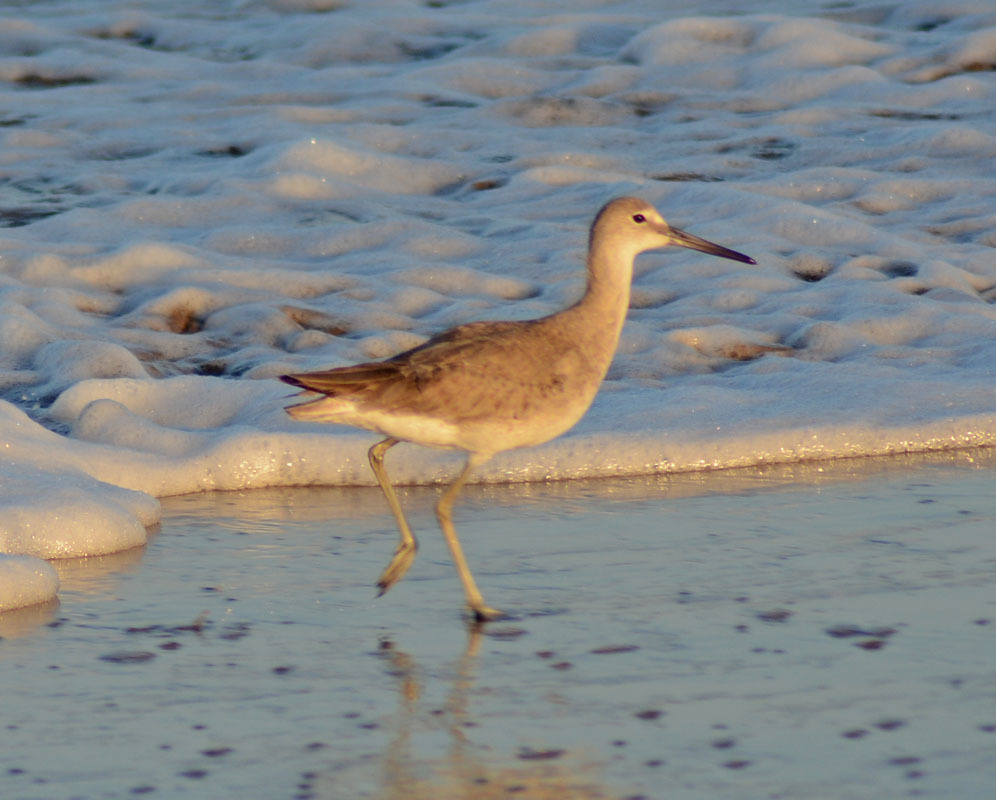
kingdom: Animalia
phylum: Chordata
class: Aves
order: Charadriiformes
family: Scolopacidae
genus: Tringa
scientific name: Tringa semipalmata
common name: Willet
